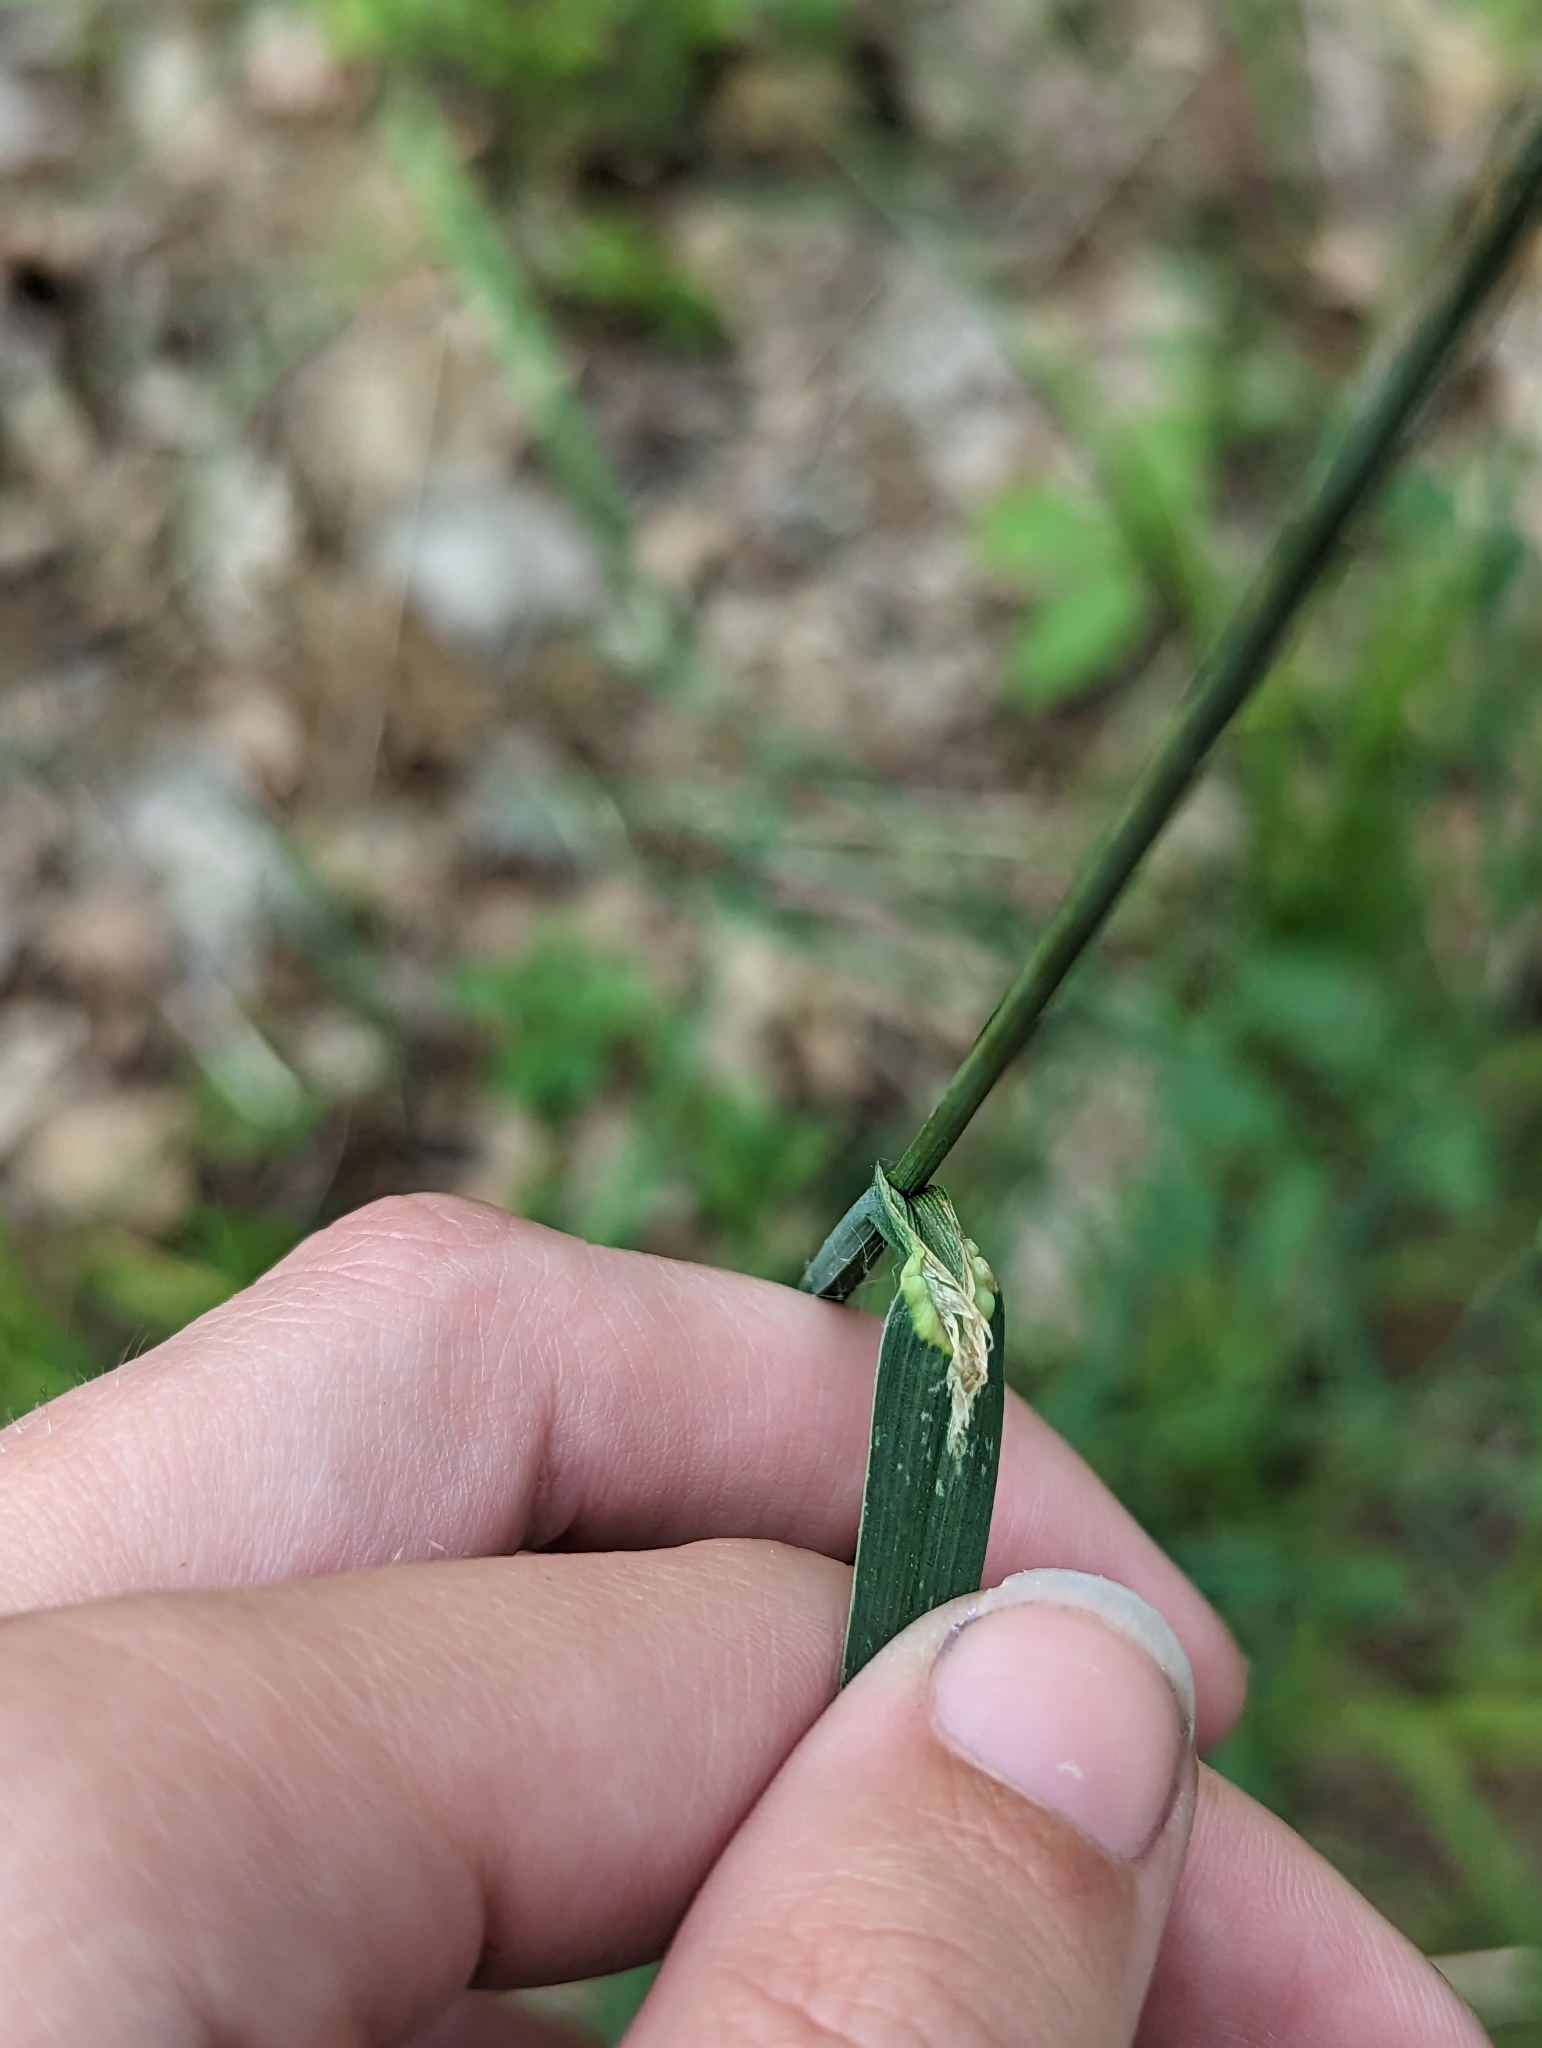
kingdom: Plantae
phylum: Tracheophyta
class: Liliopsida
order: Poales
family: Poaceae
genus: Dactylis
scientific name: Dactylis glomerata
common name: Orchardgrass
